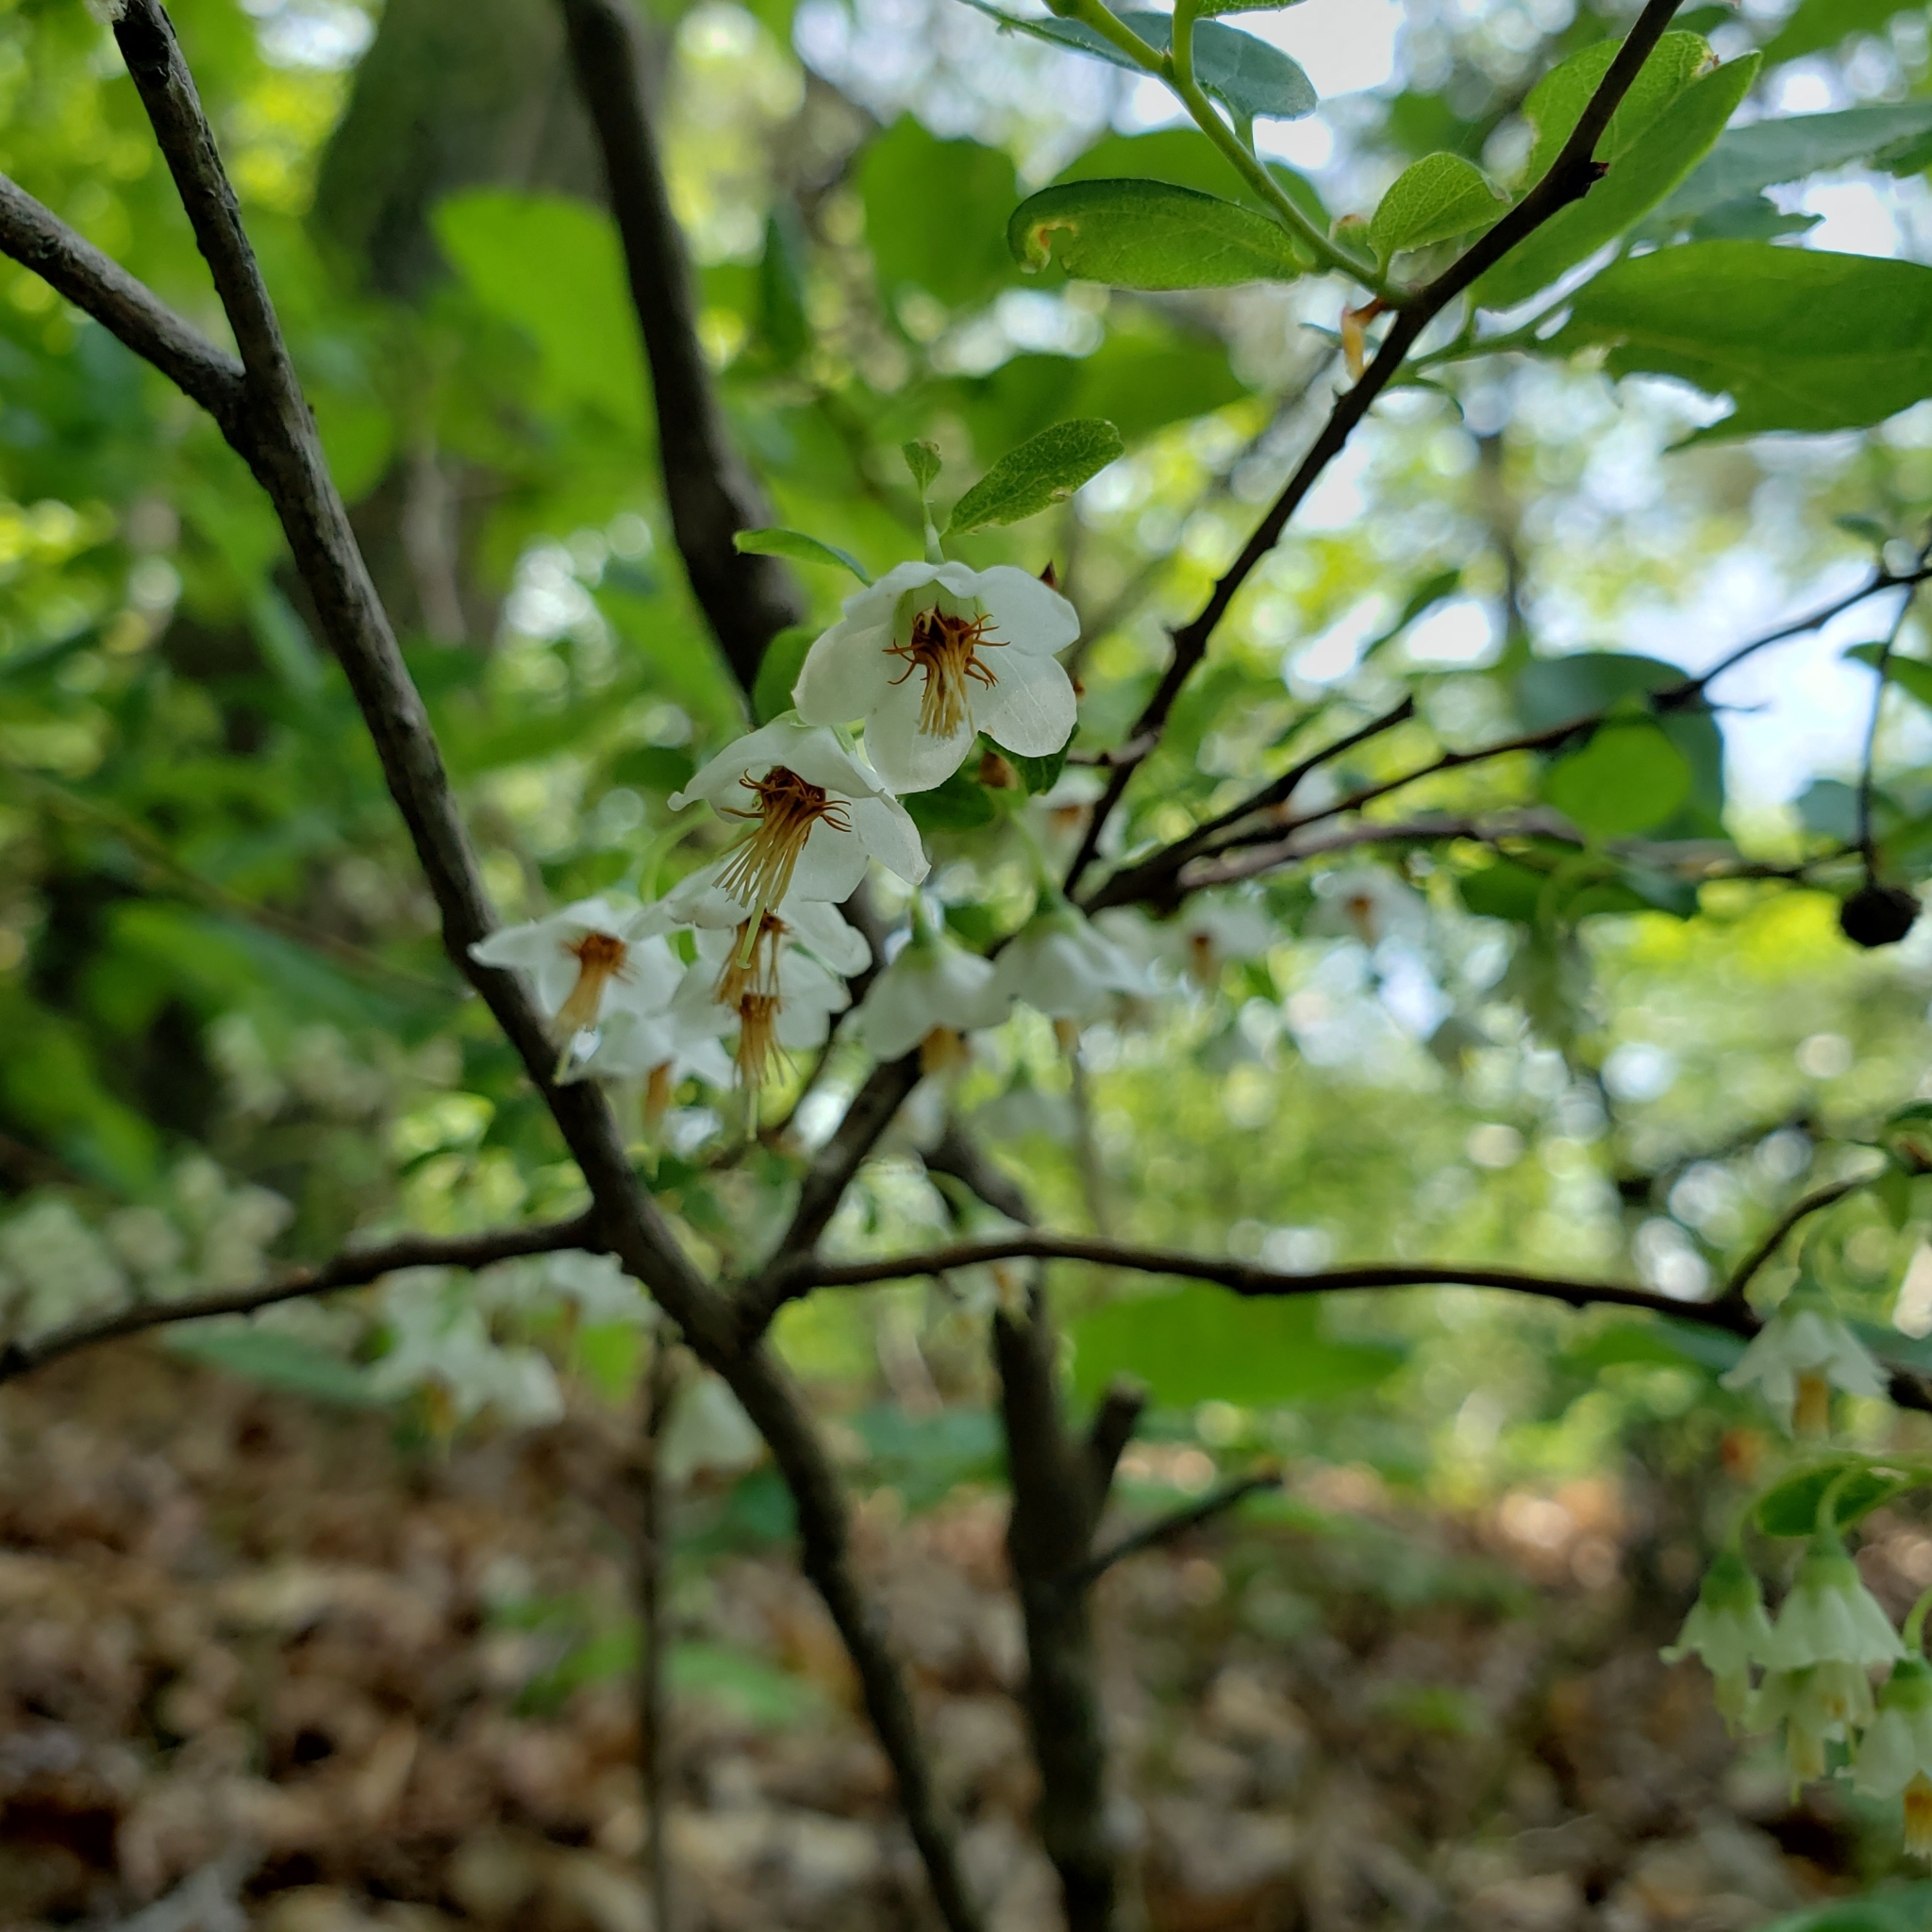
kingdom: Plantae
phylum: Tracheophyta
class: Magnoliopsida
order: Ericales
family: Ericaceae
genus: Vaccinium
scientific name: Vaccinium stamineum
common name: Deerberry
